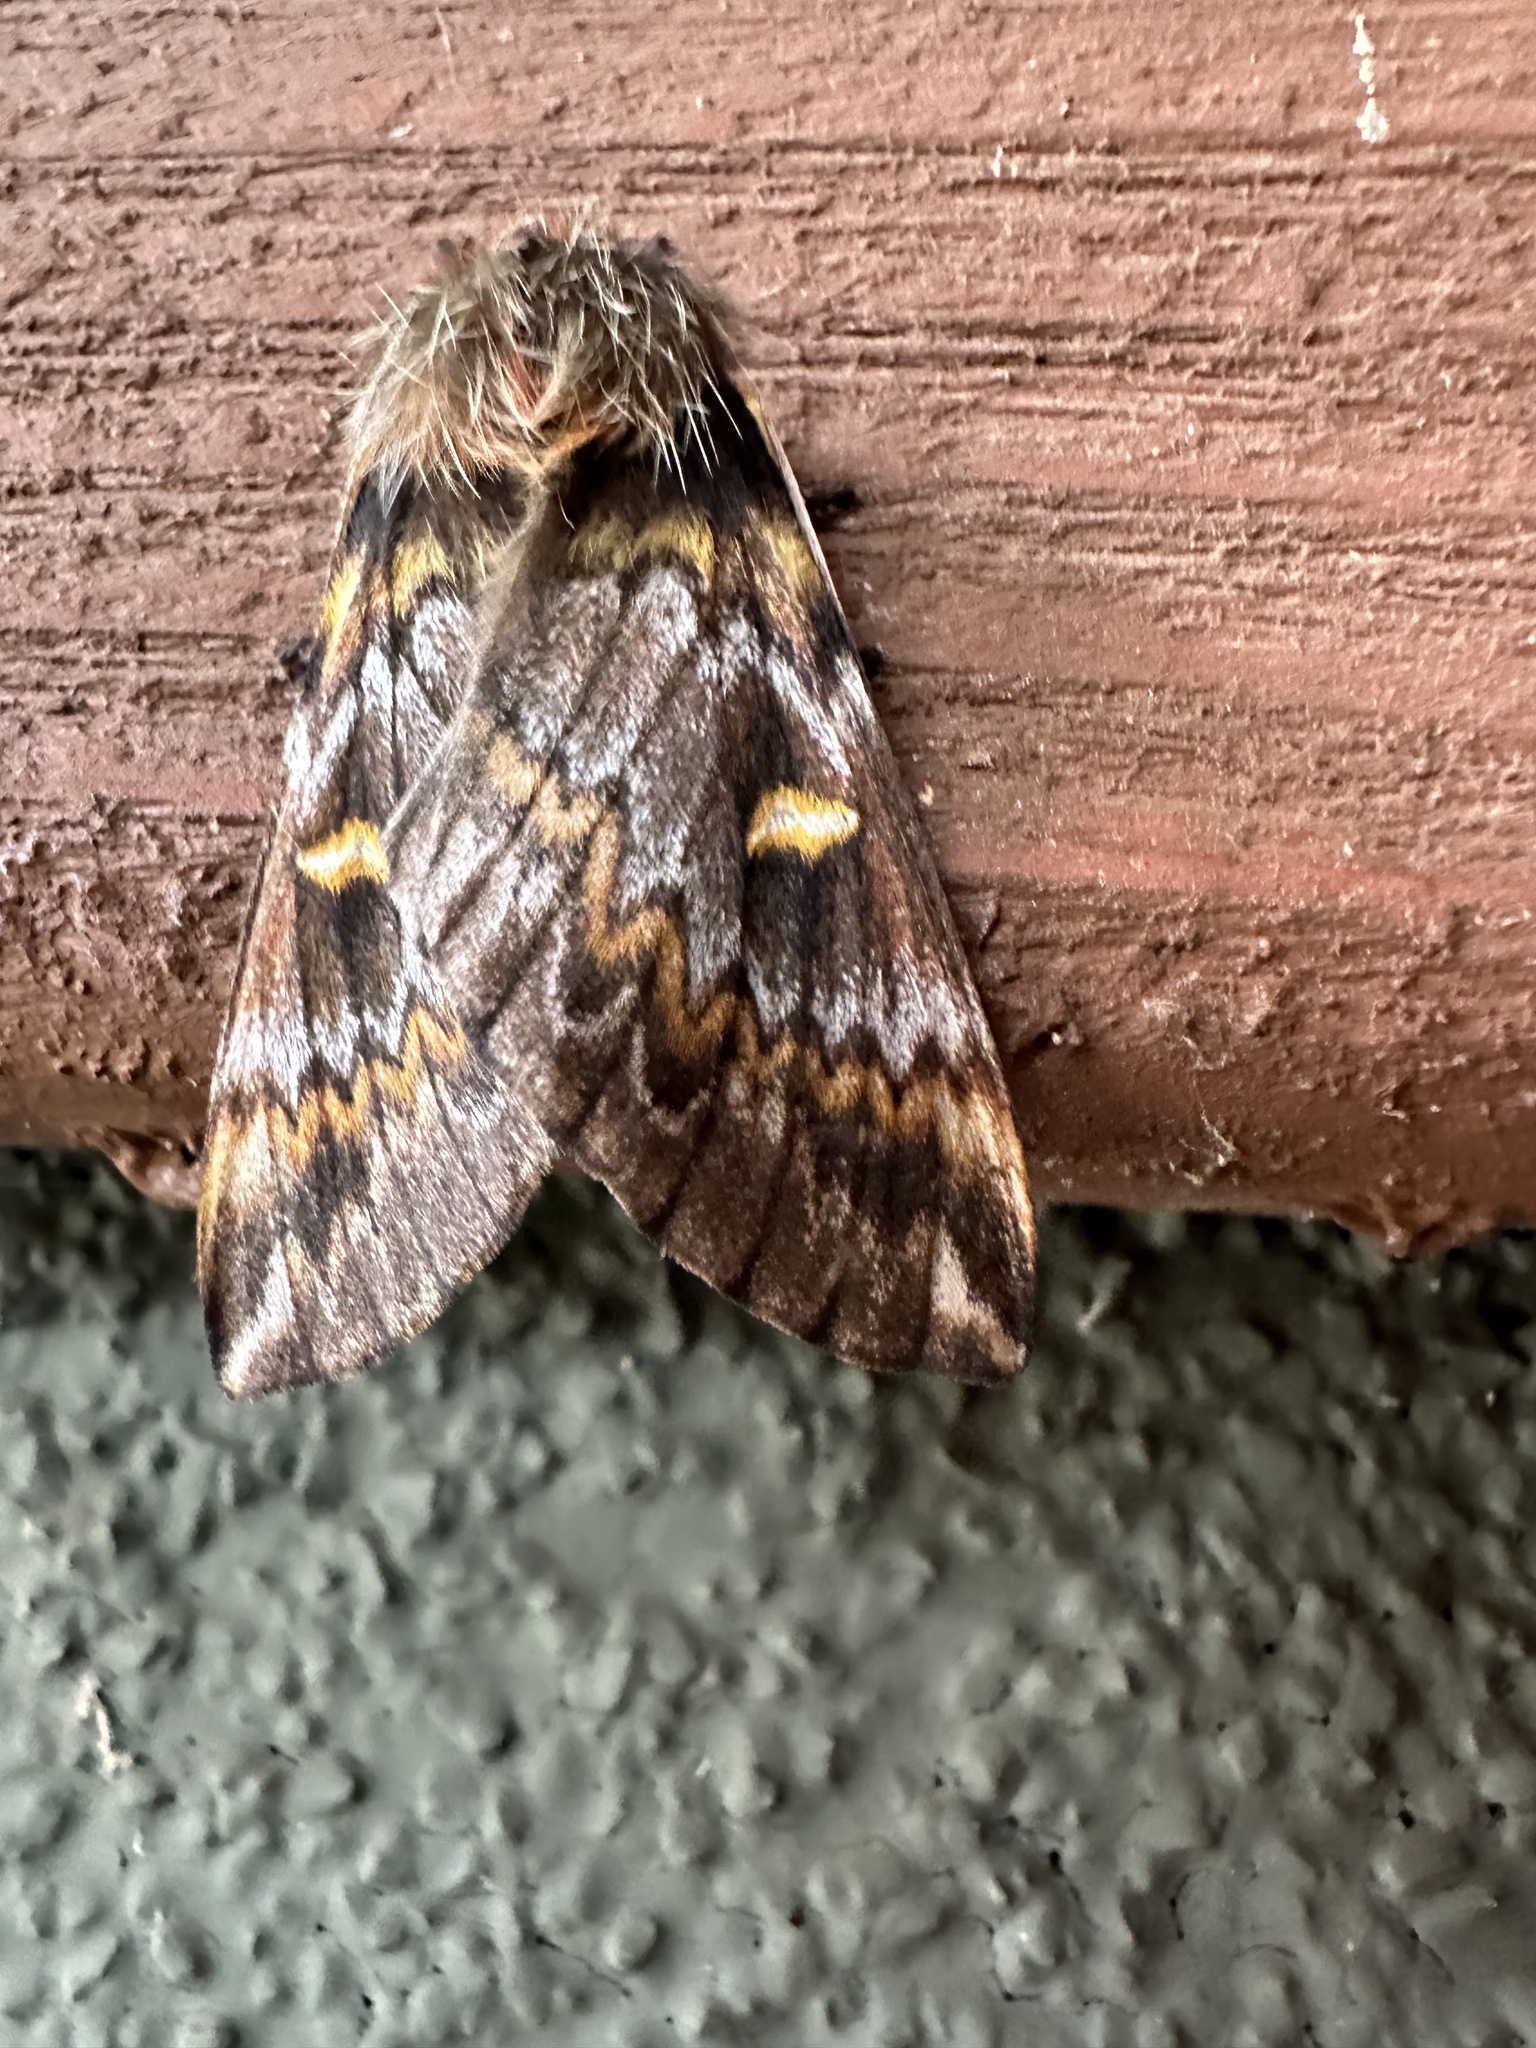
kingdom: Animalia
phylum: Arthropoda
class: Insecta
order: Lepidoptera
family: Saturniidae
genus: Ormiscodes
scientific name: Ormiscodes schmidtnielseni
